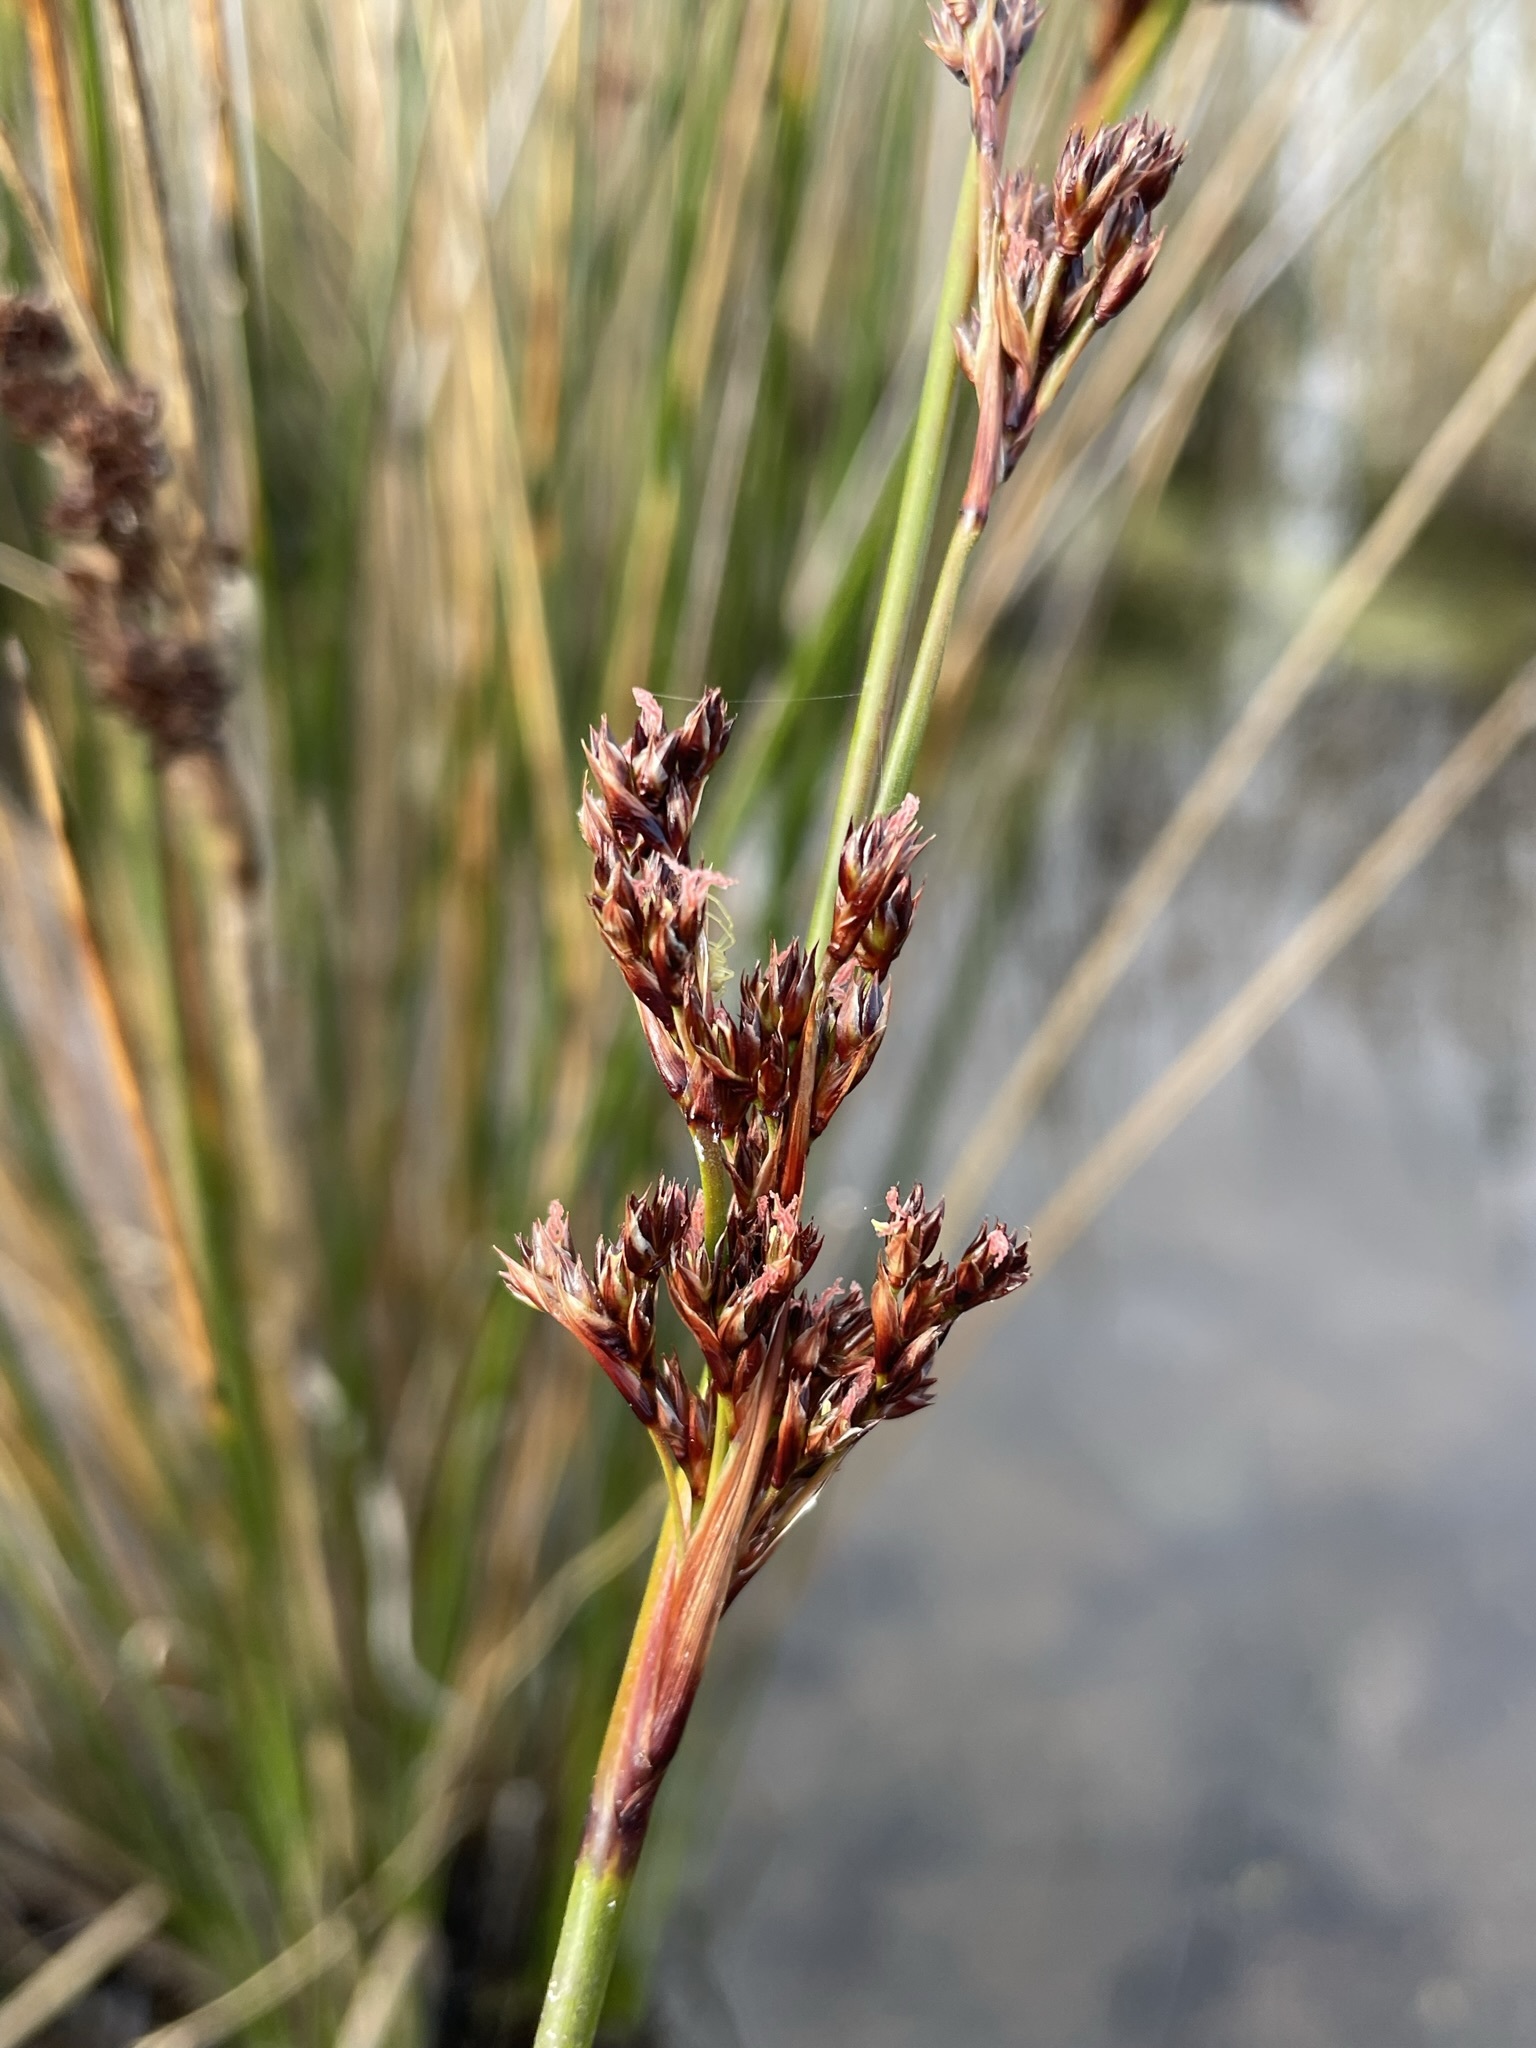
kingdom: Plantae
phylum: Tracheophyta
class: Liliopsida
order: Poales
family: Juncaceae
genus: Juncus
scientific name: Juncus kraussii
